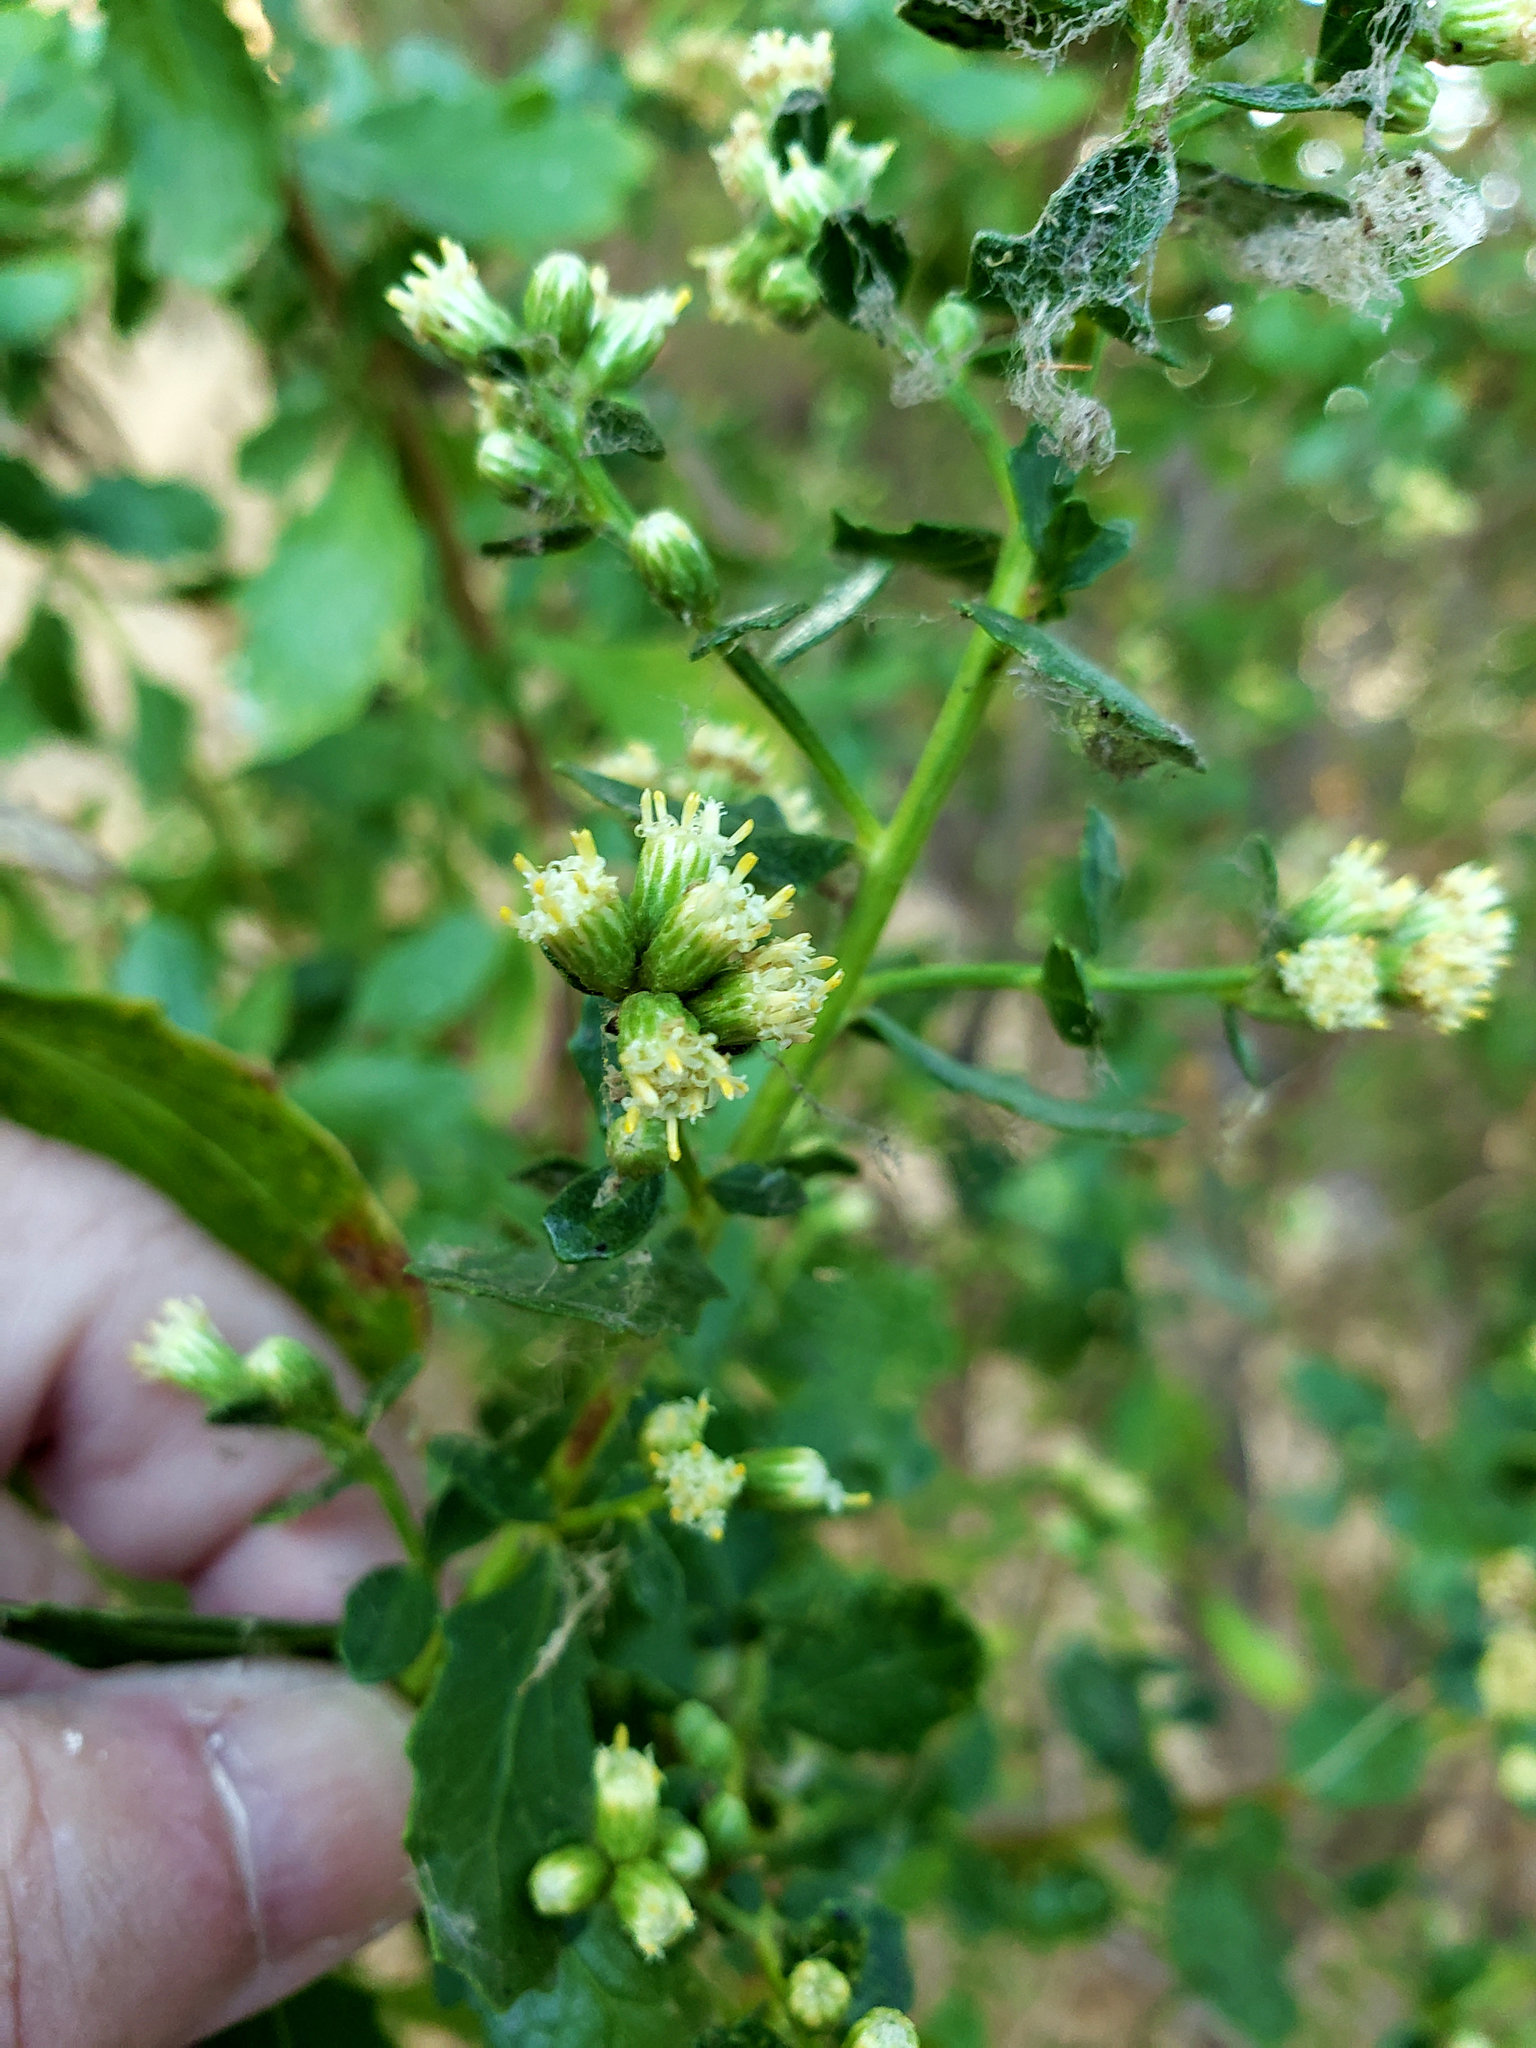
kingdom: Plantae
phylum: Tracheophyta
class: Magnoliopsida
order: Asterales
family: Asteraceae
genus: Baccharis
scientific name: Baccharis pilularis
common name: Coyotebrush
